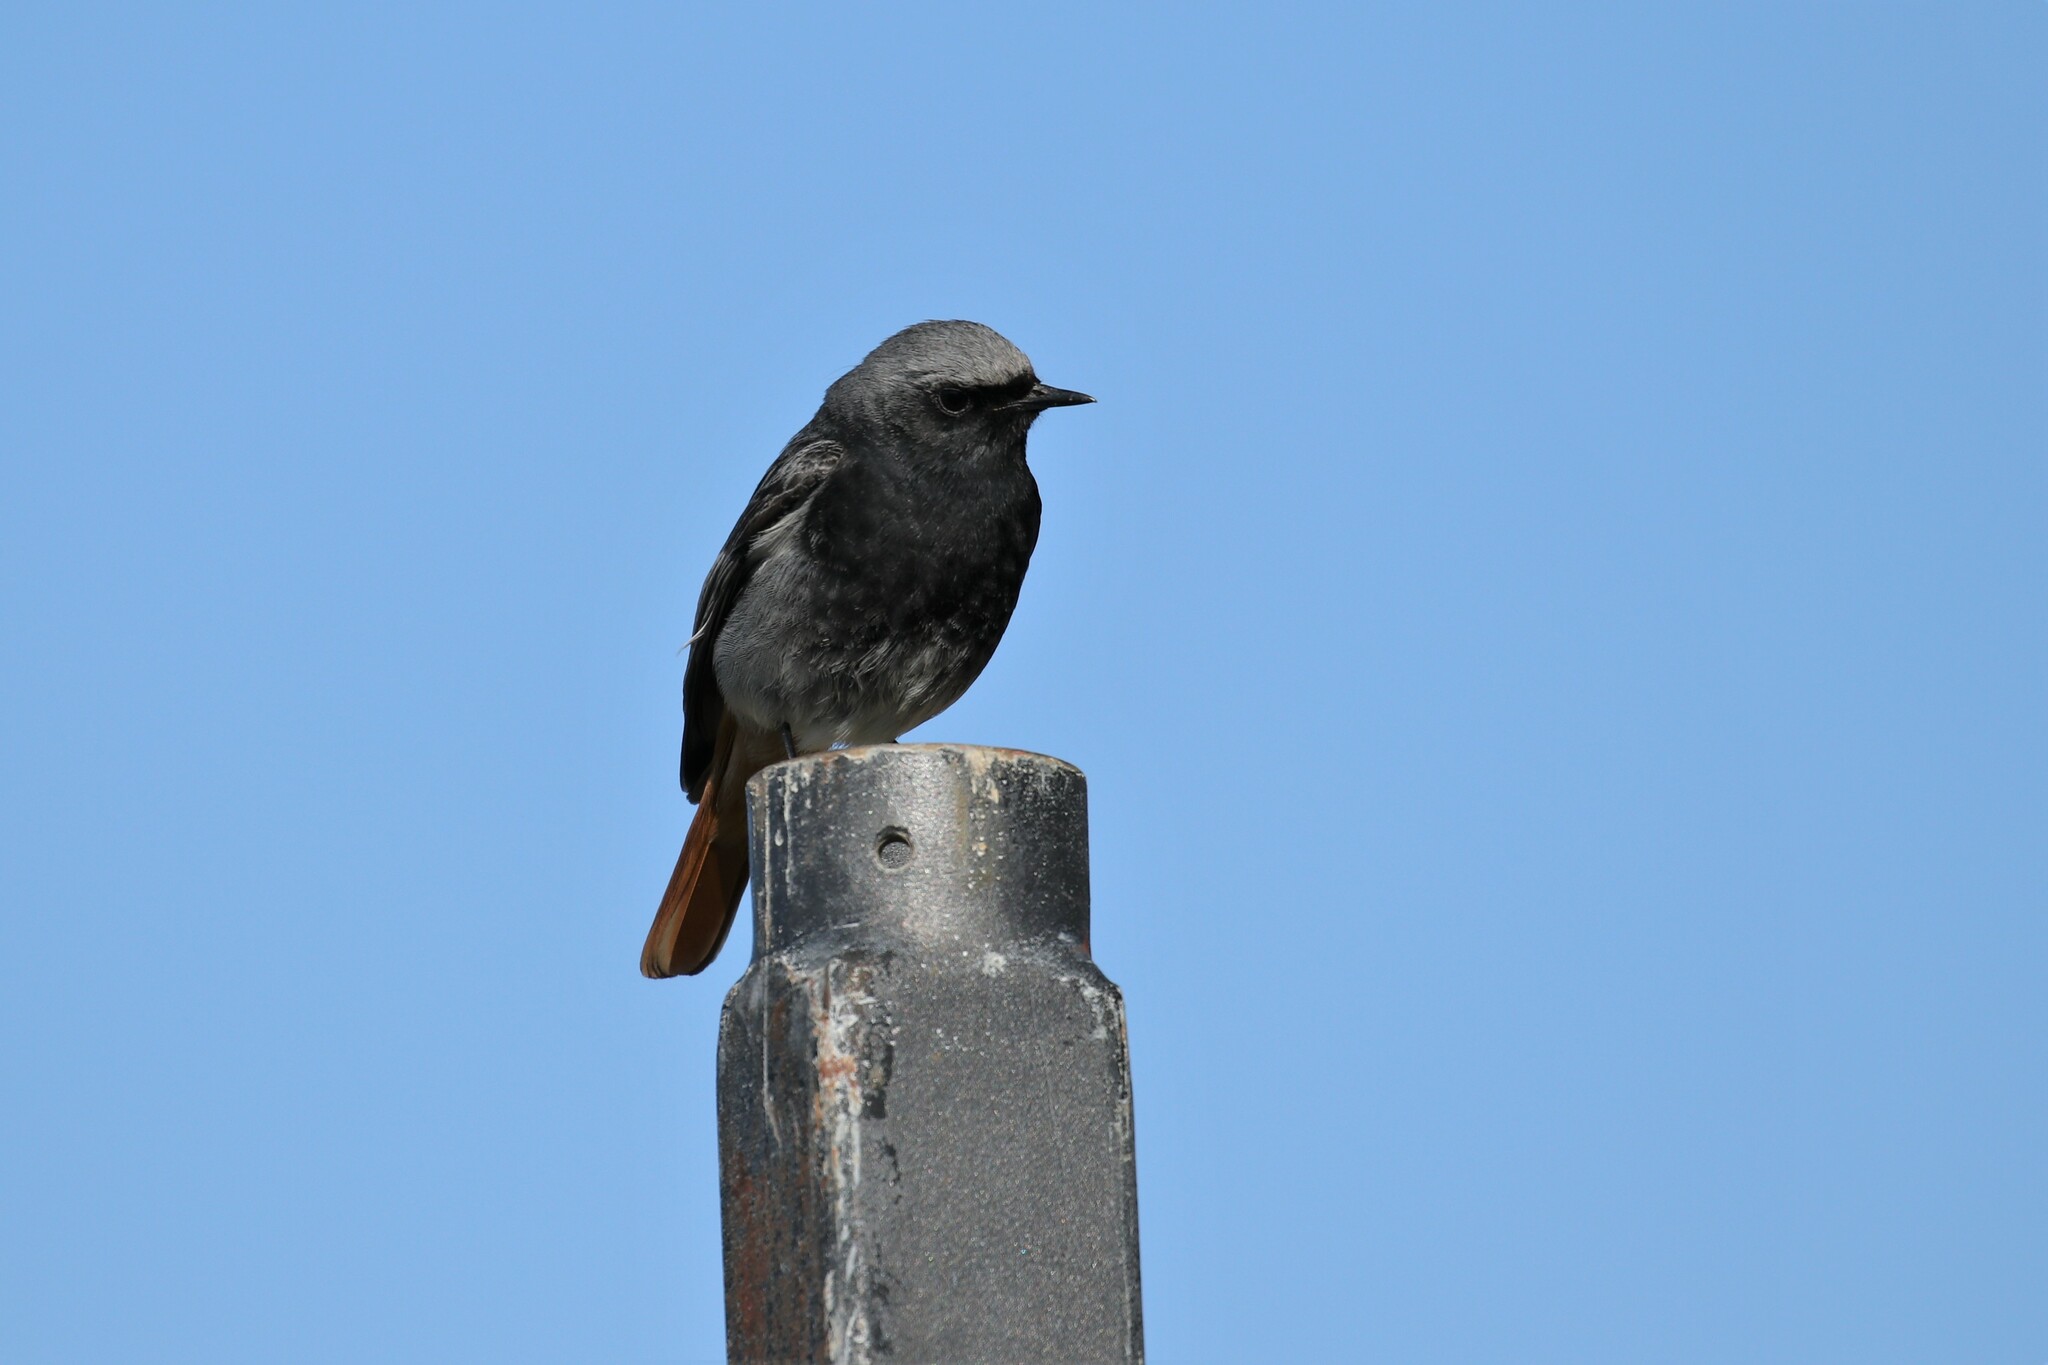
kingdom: Animalia
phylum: Chordata
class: Aves
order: Passeriformes
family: Muscicapidae
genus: Phoenicurus
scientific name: Phoenicurus ochruros
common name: Black redstart
